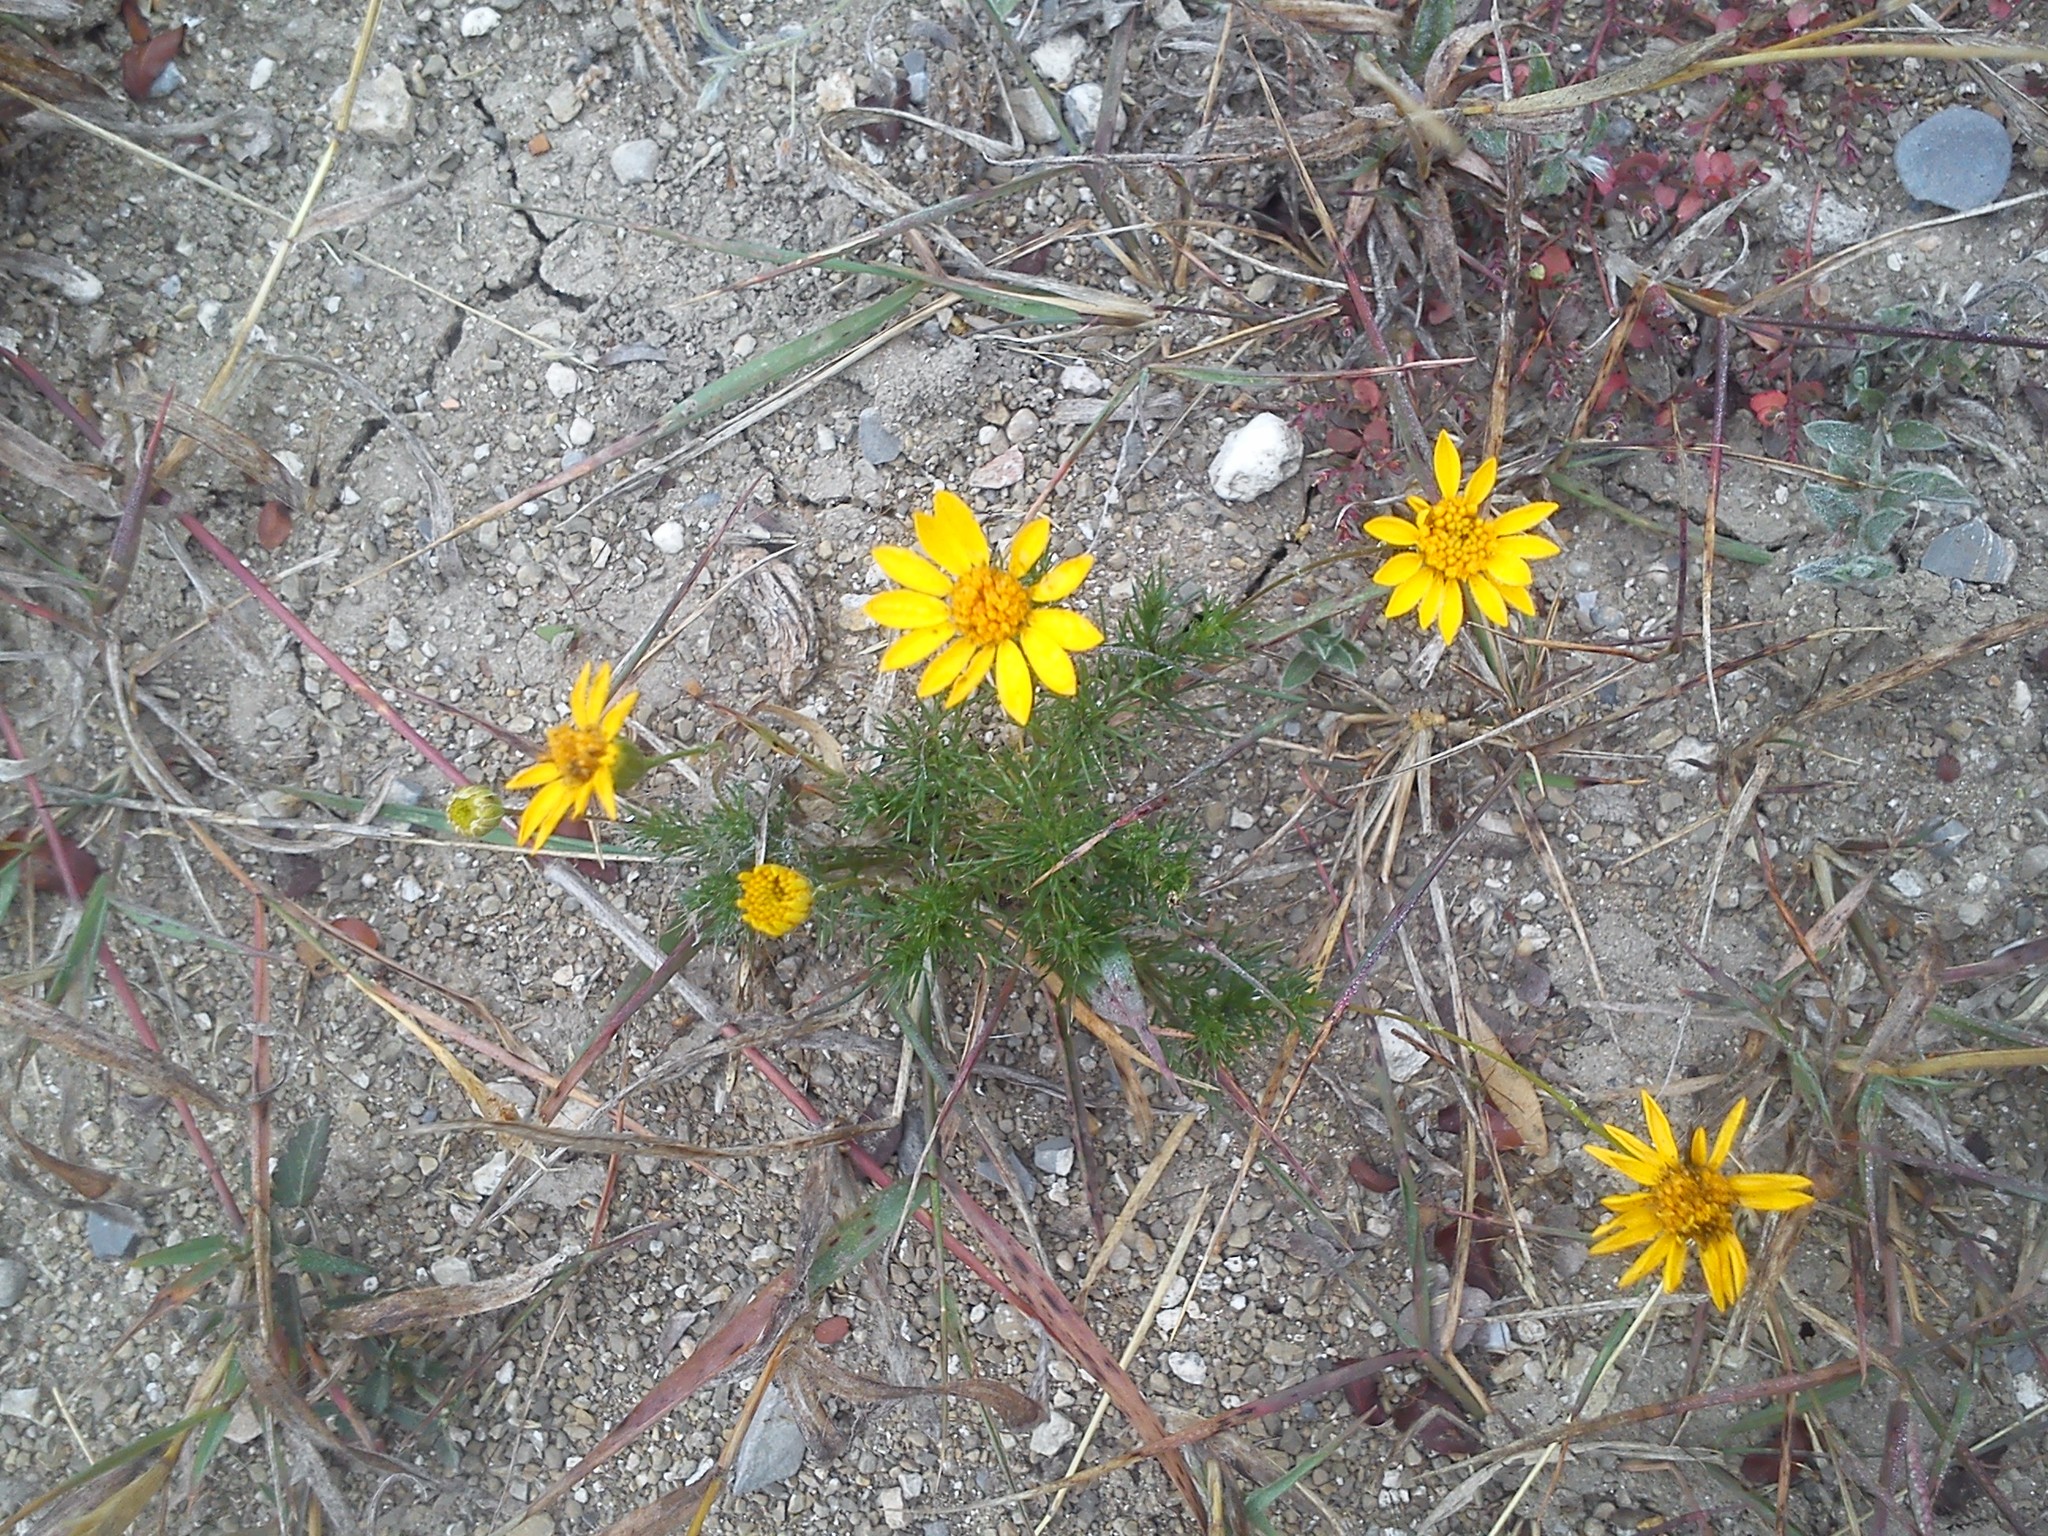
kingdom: Plantae
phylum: Tracheophyta
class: Magnoliopsida
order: Asterales
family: Asteraceae
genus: Thymophylla
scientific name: Thymophylla pentachaeta
